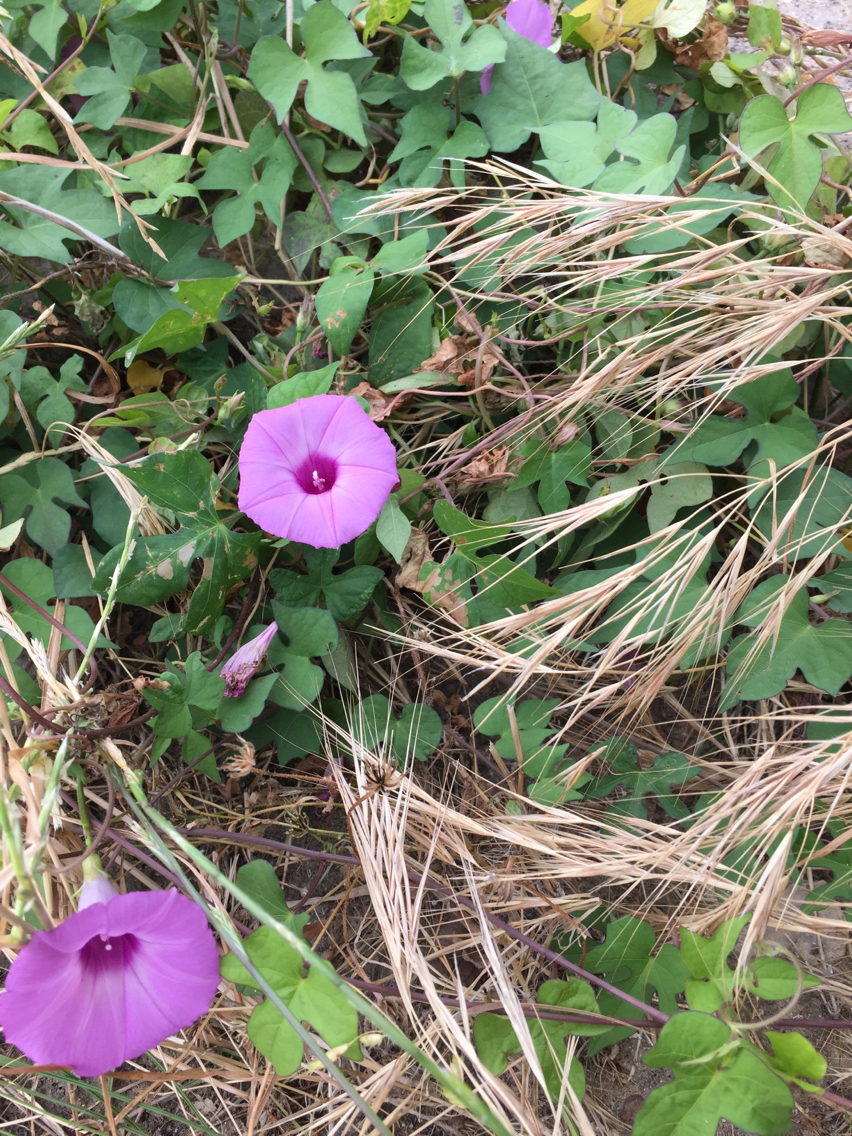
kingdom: Plantae
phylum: Tracheophyta
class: Magnoliopsida
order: Solanales
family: Convolvulaceae
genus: Ipomoea
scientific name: Ipomoea cordatotriloba
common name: Cotton morning glory
